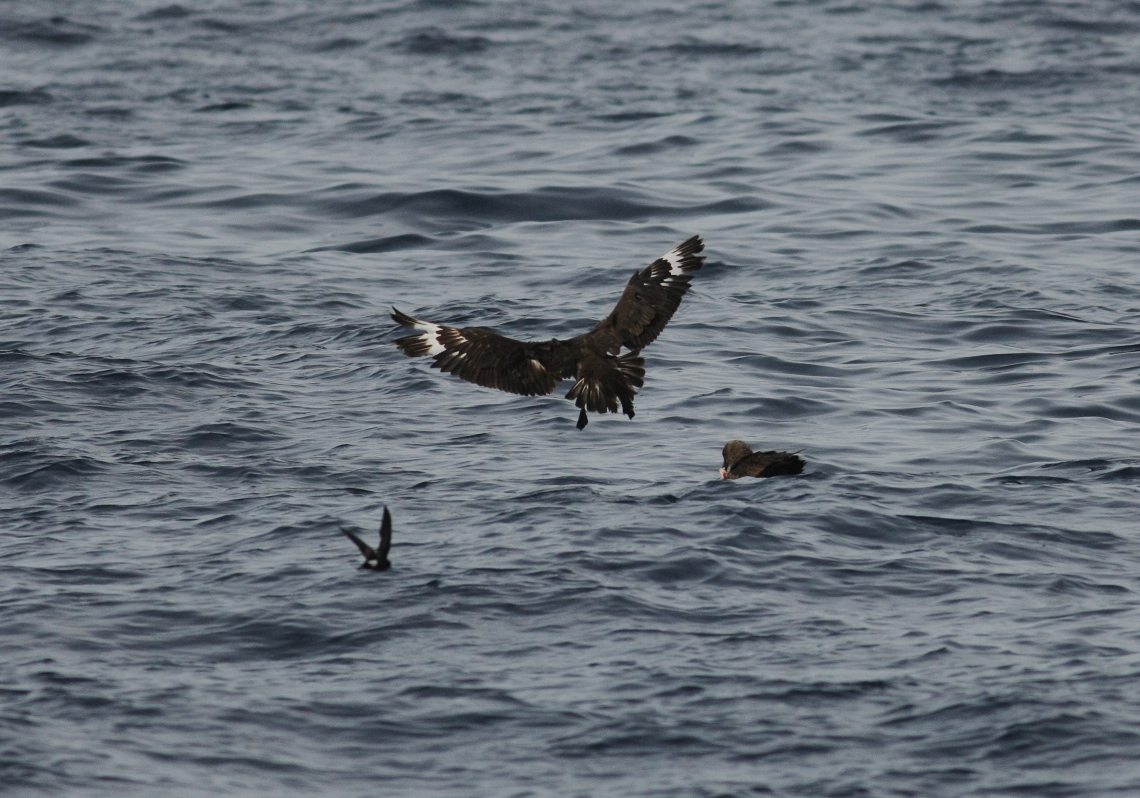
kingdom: Animalia
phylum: Chordata
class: Aves
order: Charadriiformes
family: Stercorariidae
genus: Stercorarius
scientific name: Stercorarius maccormicki
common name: South polar skua
